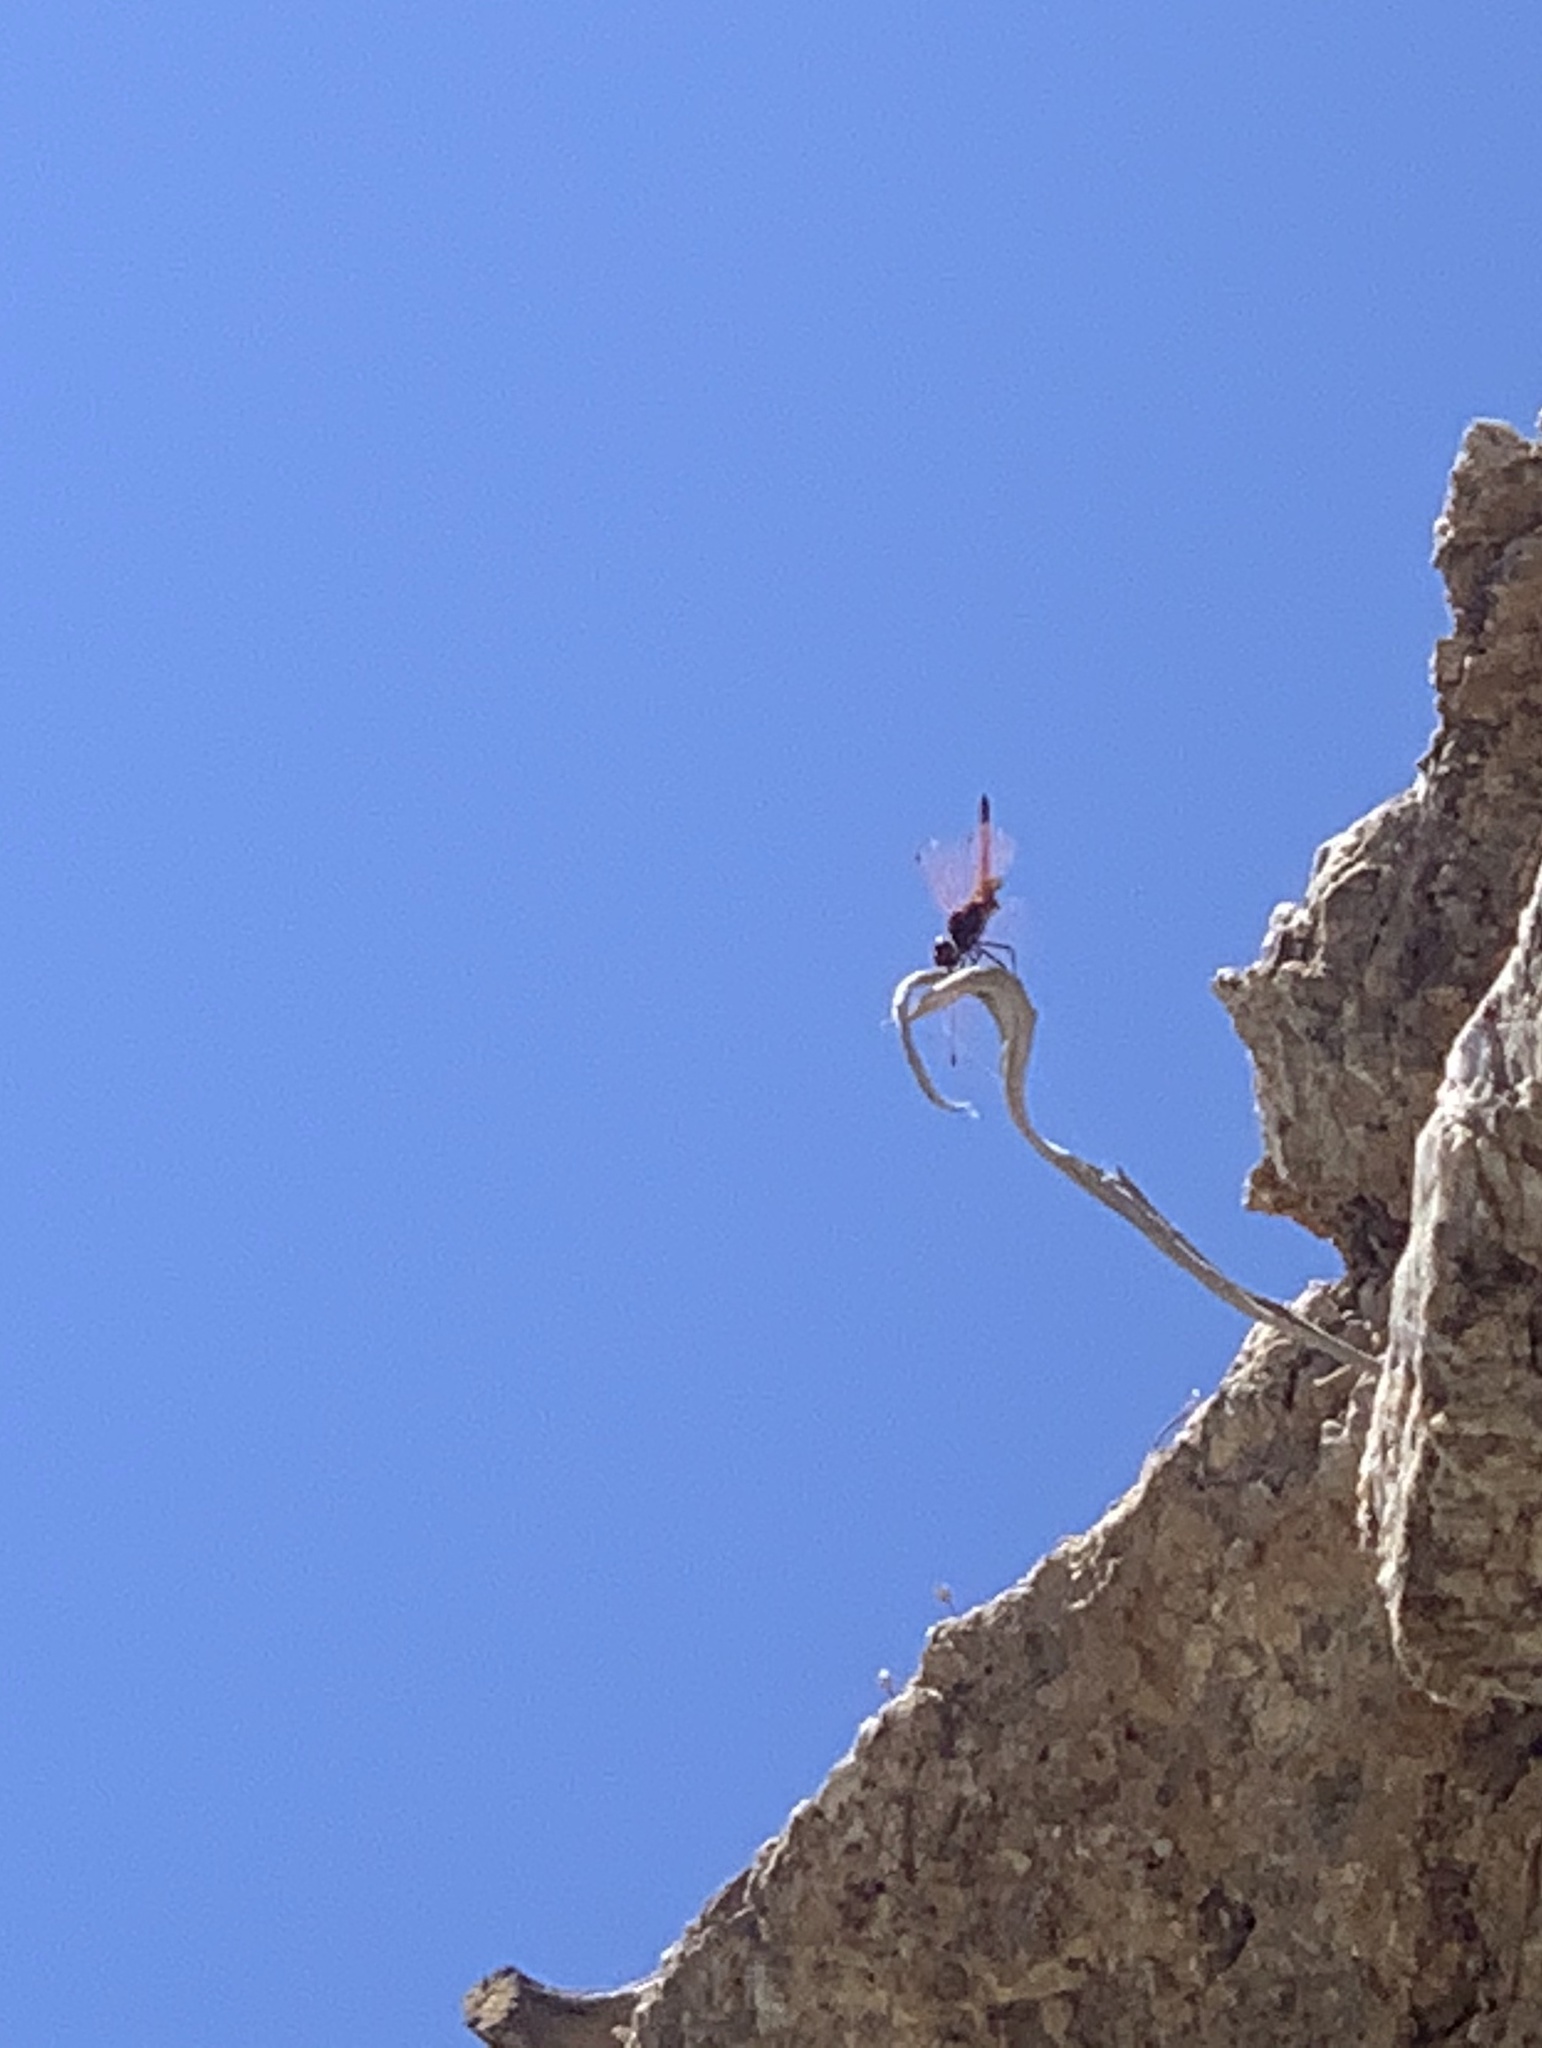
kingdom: Animalia
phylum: Arthropoda
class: Insecta
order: Odonata
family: Libellulidae
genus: Trithemis
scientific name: Trithemis annulata
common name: Violet dropwing
